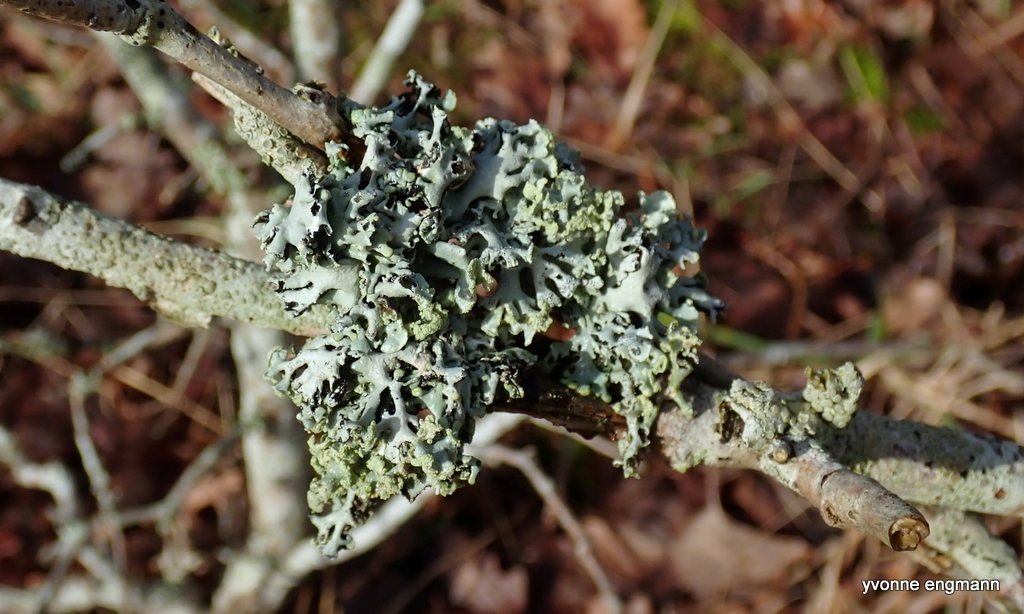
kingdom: Fungi
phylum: Ascomycota
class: Lecanoromycetes
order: Lecanorales
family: Parmeliaceae
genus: Hypogymnia
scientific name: Hypogymnia physodes
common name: Dark crottle
